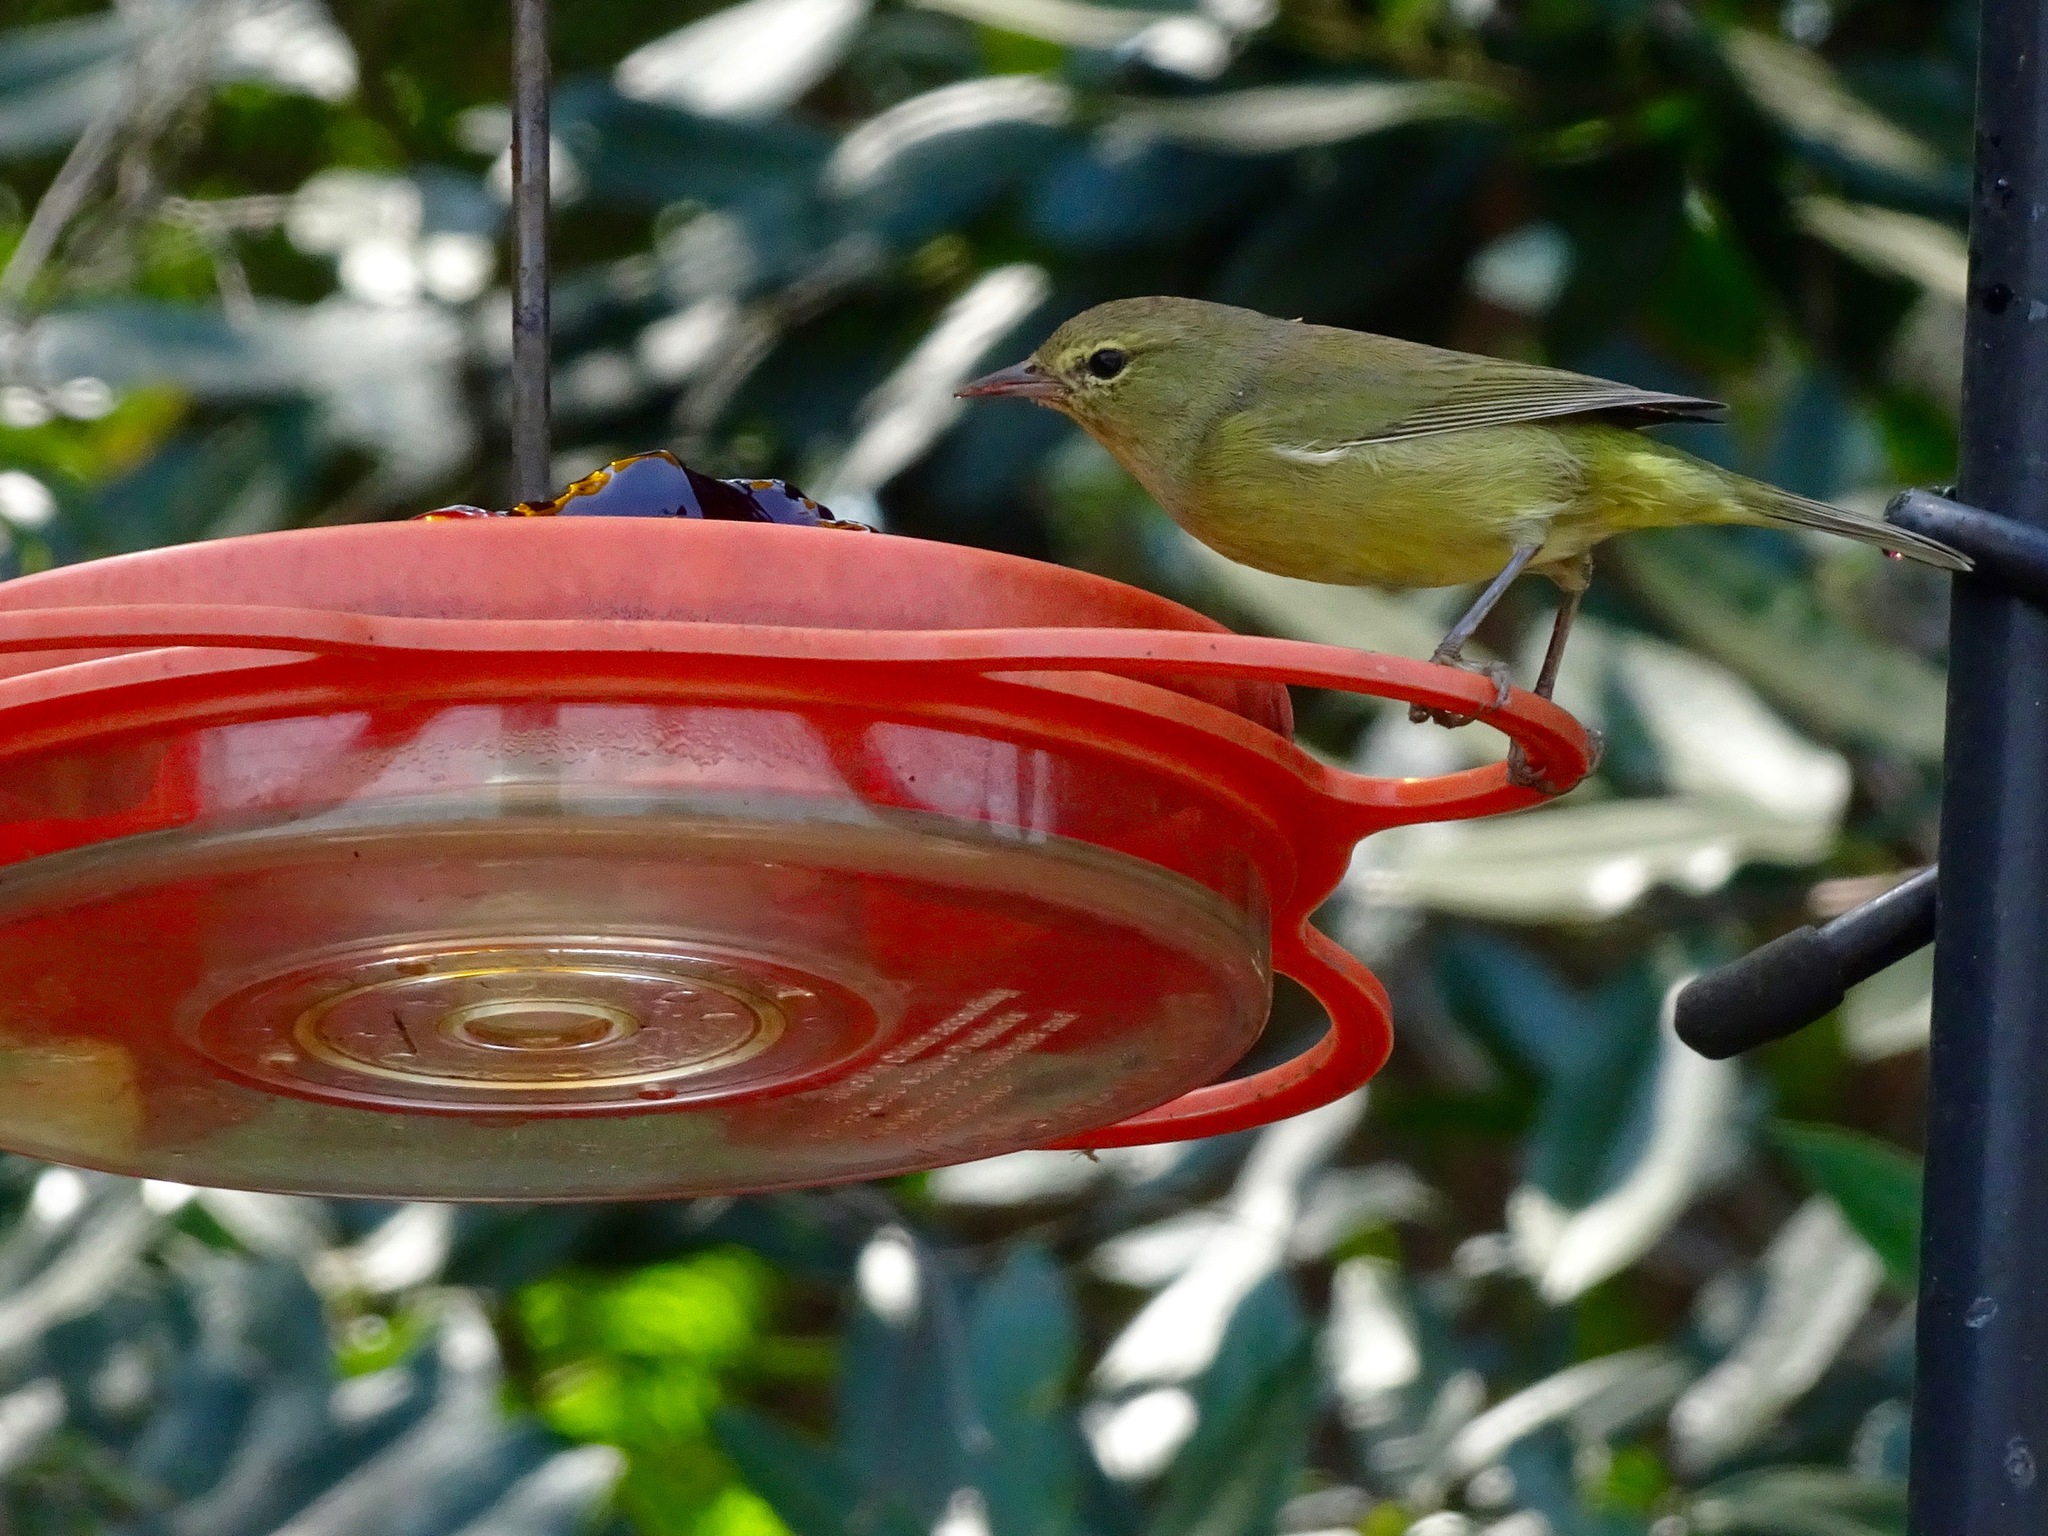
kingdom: Animalia
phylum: Chordata
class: Aves
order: Passeriformes
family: Parulidae
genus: Leiothlypis
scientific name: Leiothlypis celata
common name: Orange-crowned warbler
